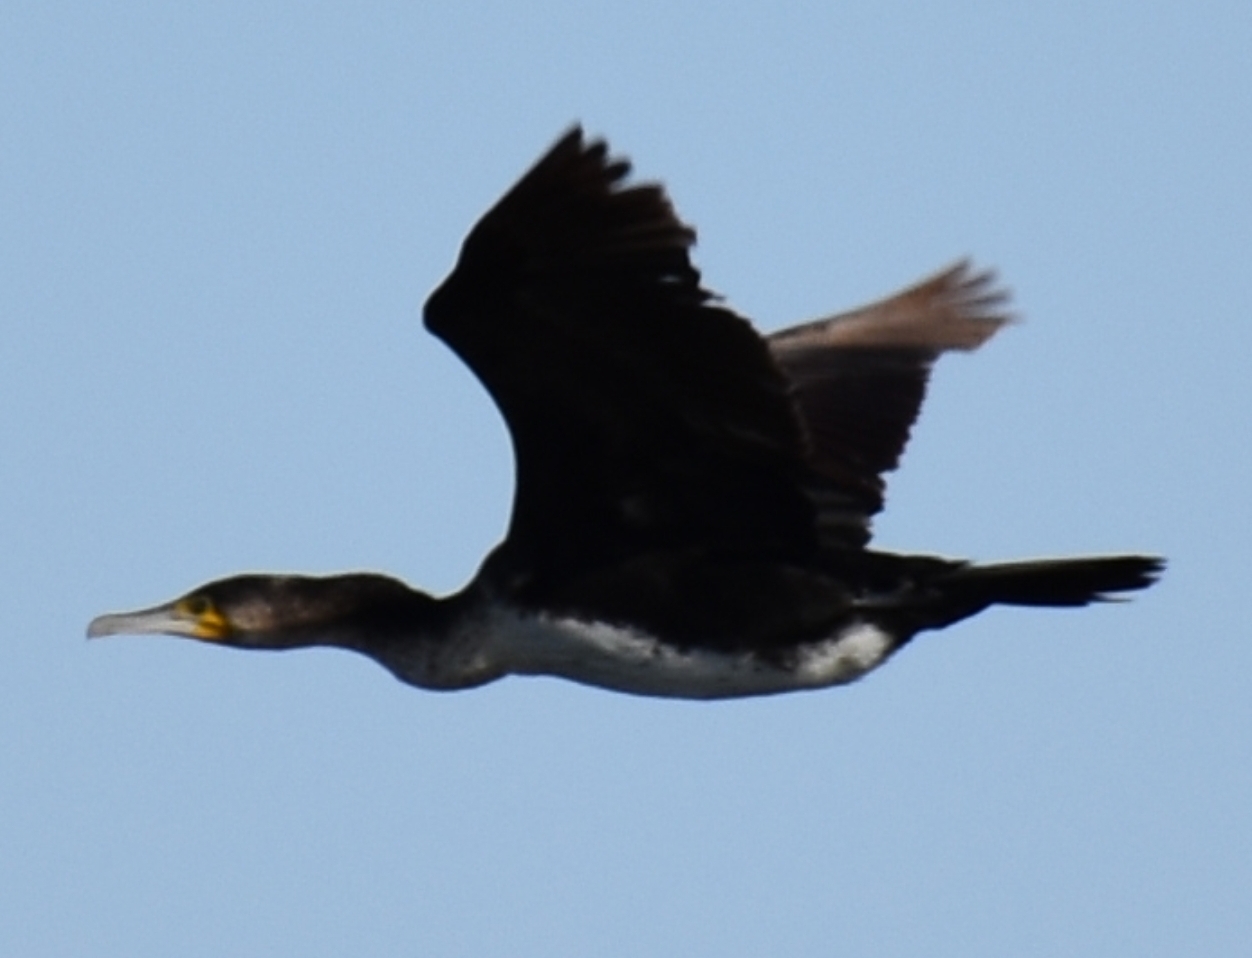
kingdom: Animalia
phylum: Chordata
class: Aves
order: Suliformes
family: Phalacrocoracidae
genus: Phalacrocorax
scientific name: Phalacrocorax carbo
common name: Great cormorant
